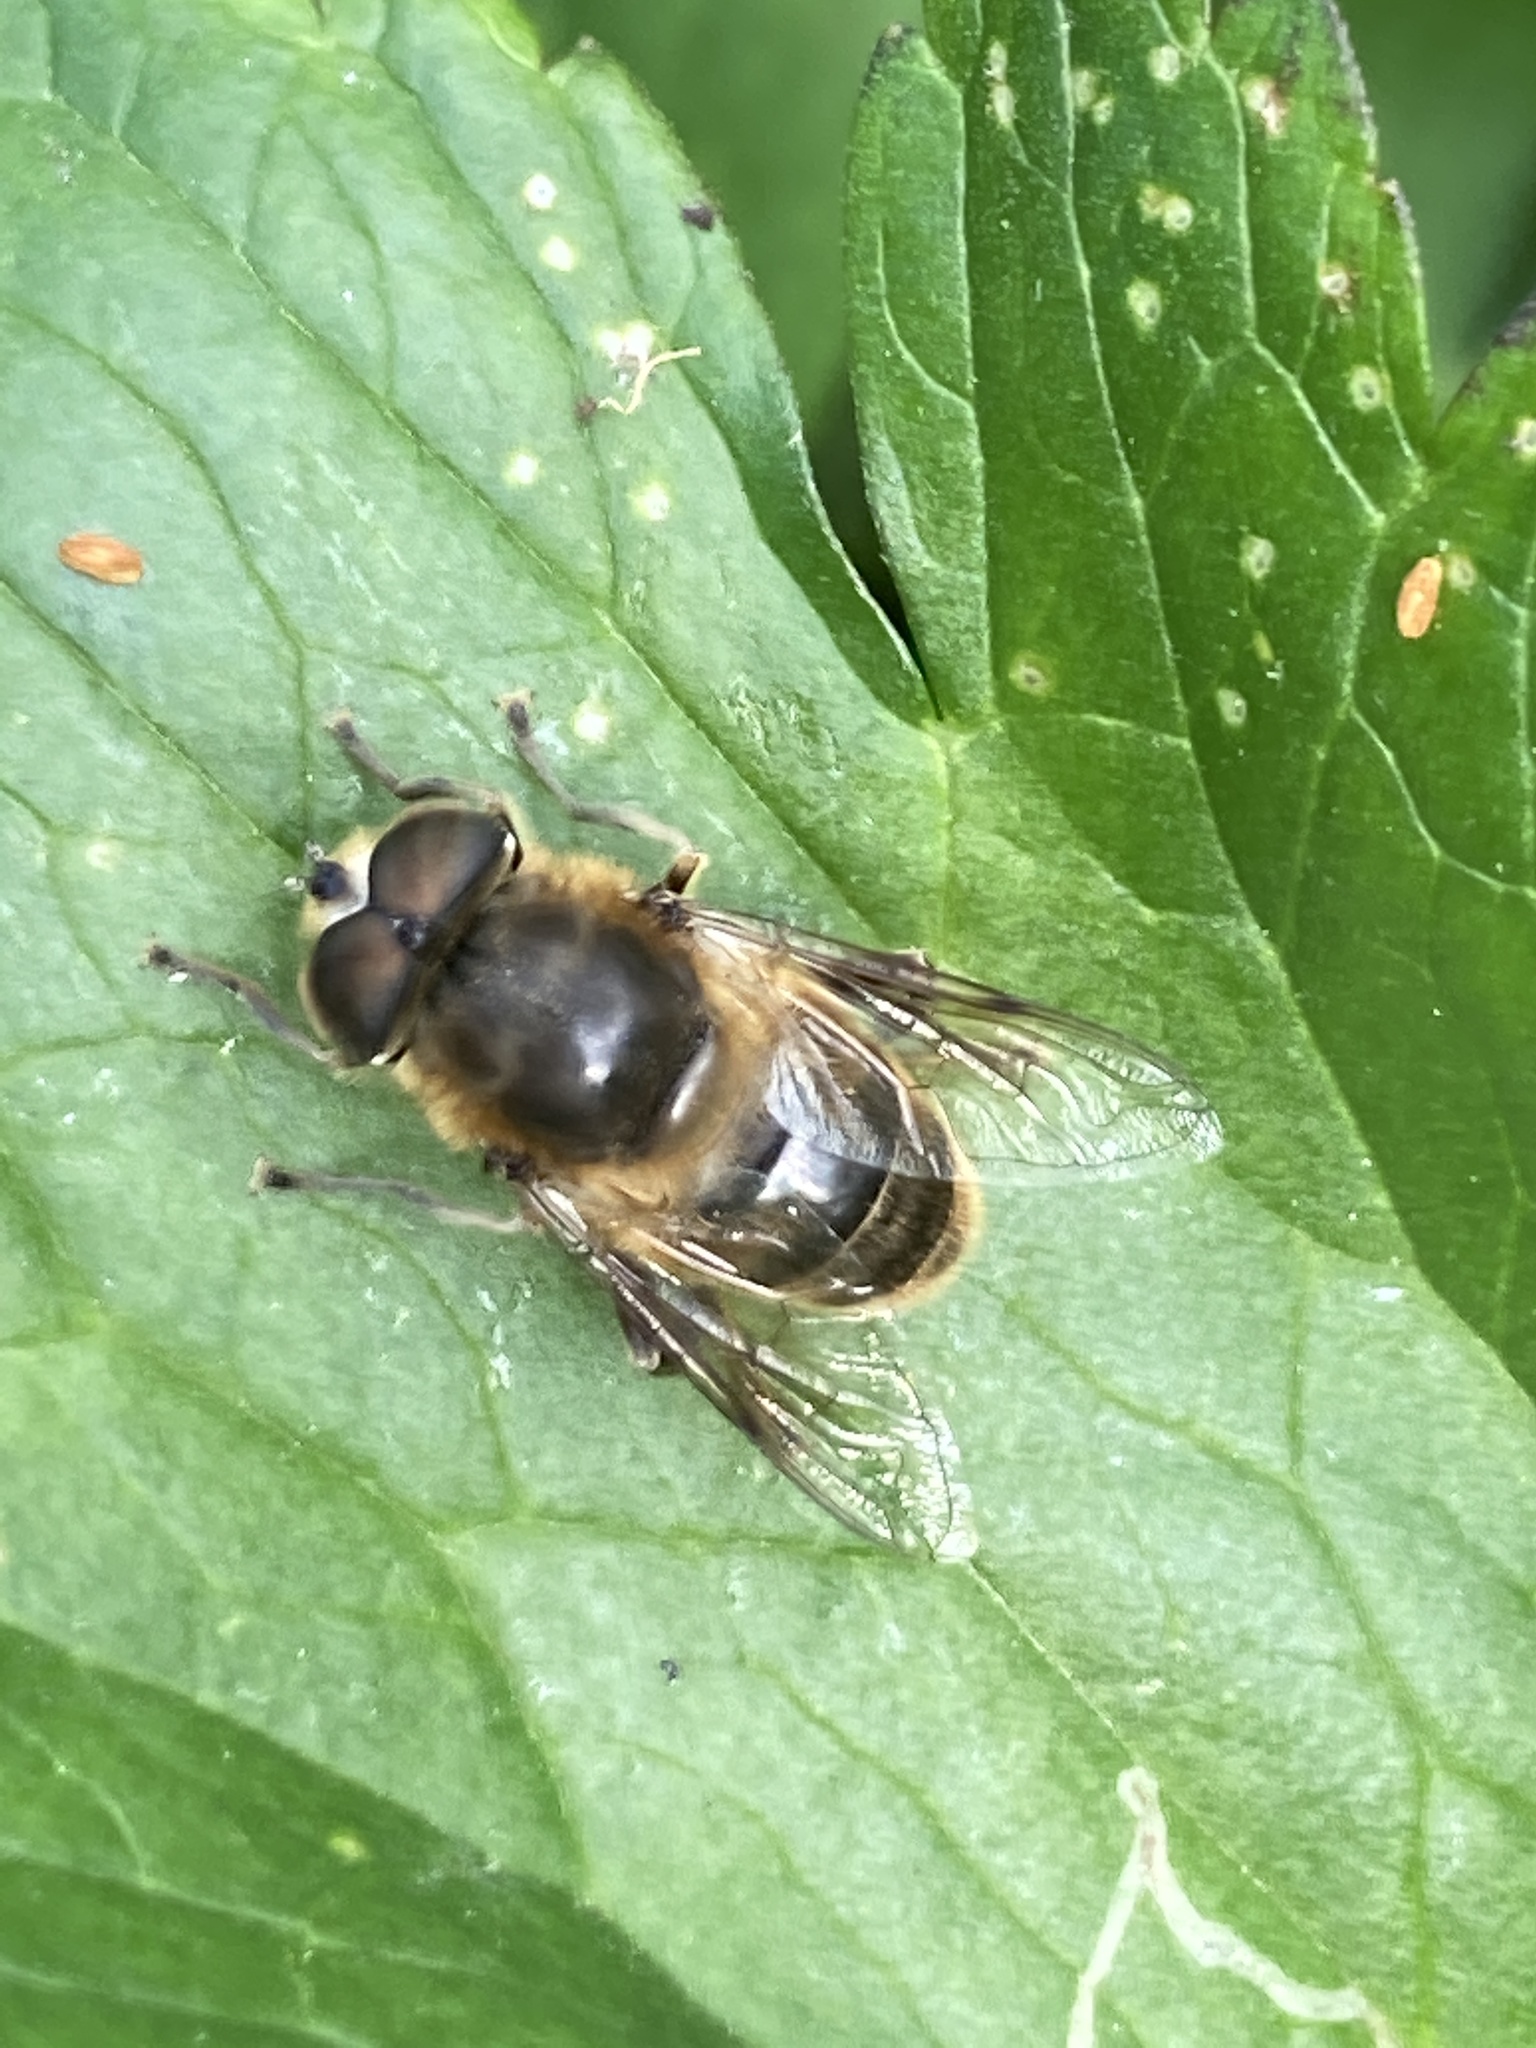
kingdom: Animalia
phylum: Arthropoda
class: Insecta
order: Diptera
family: Syrphidae
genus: Eristalis
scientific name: Eristalis tenax
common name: Drone fly
